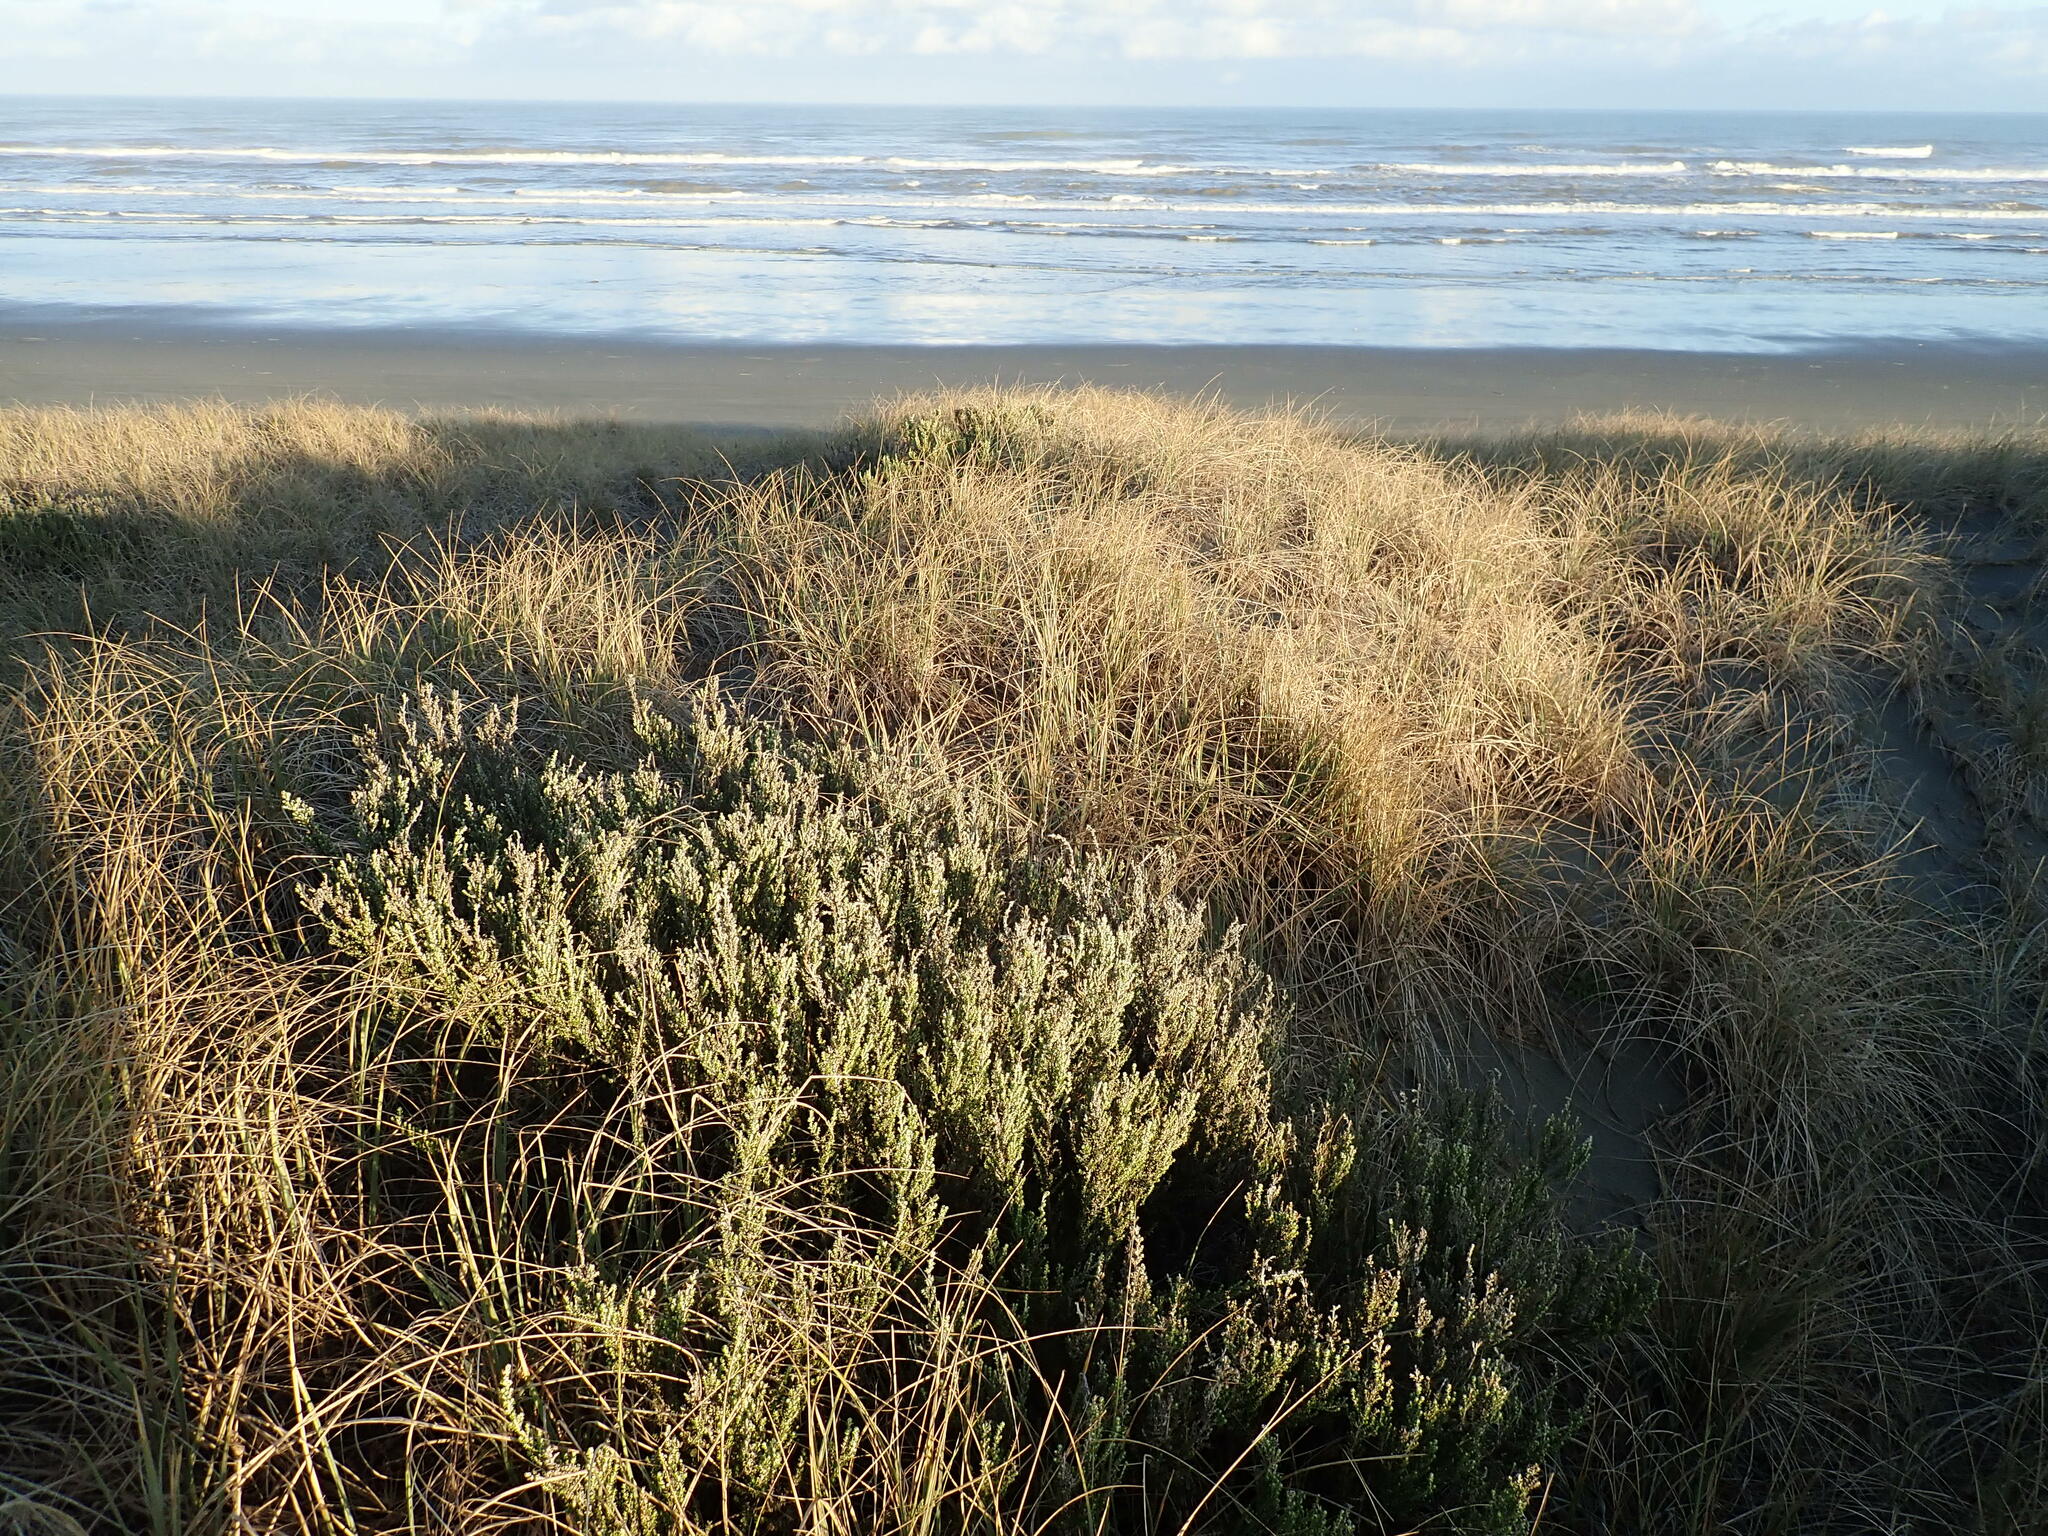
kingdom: Plantae
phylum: Tracheophyta
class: Magnoliopsida
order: Asterales
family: Asteraceae
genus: Ozothamnus
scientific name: Ozothamnus leptophyllus
